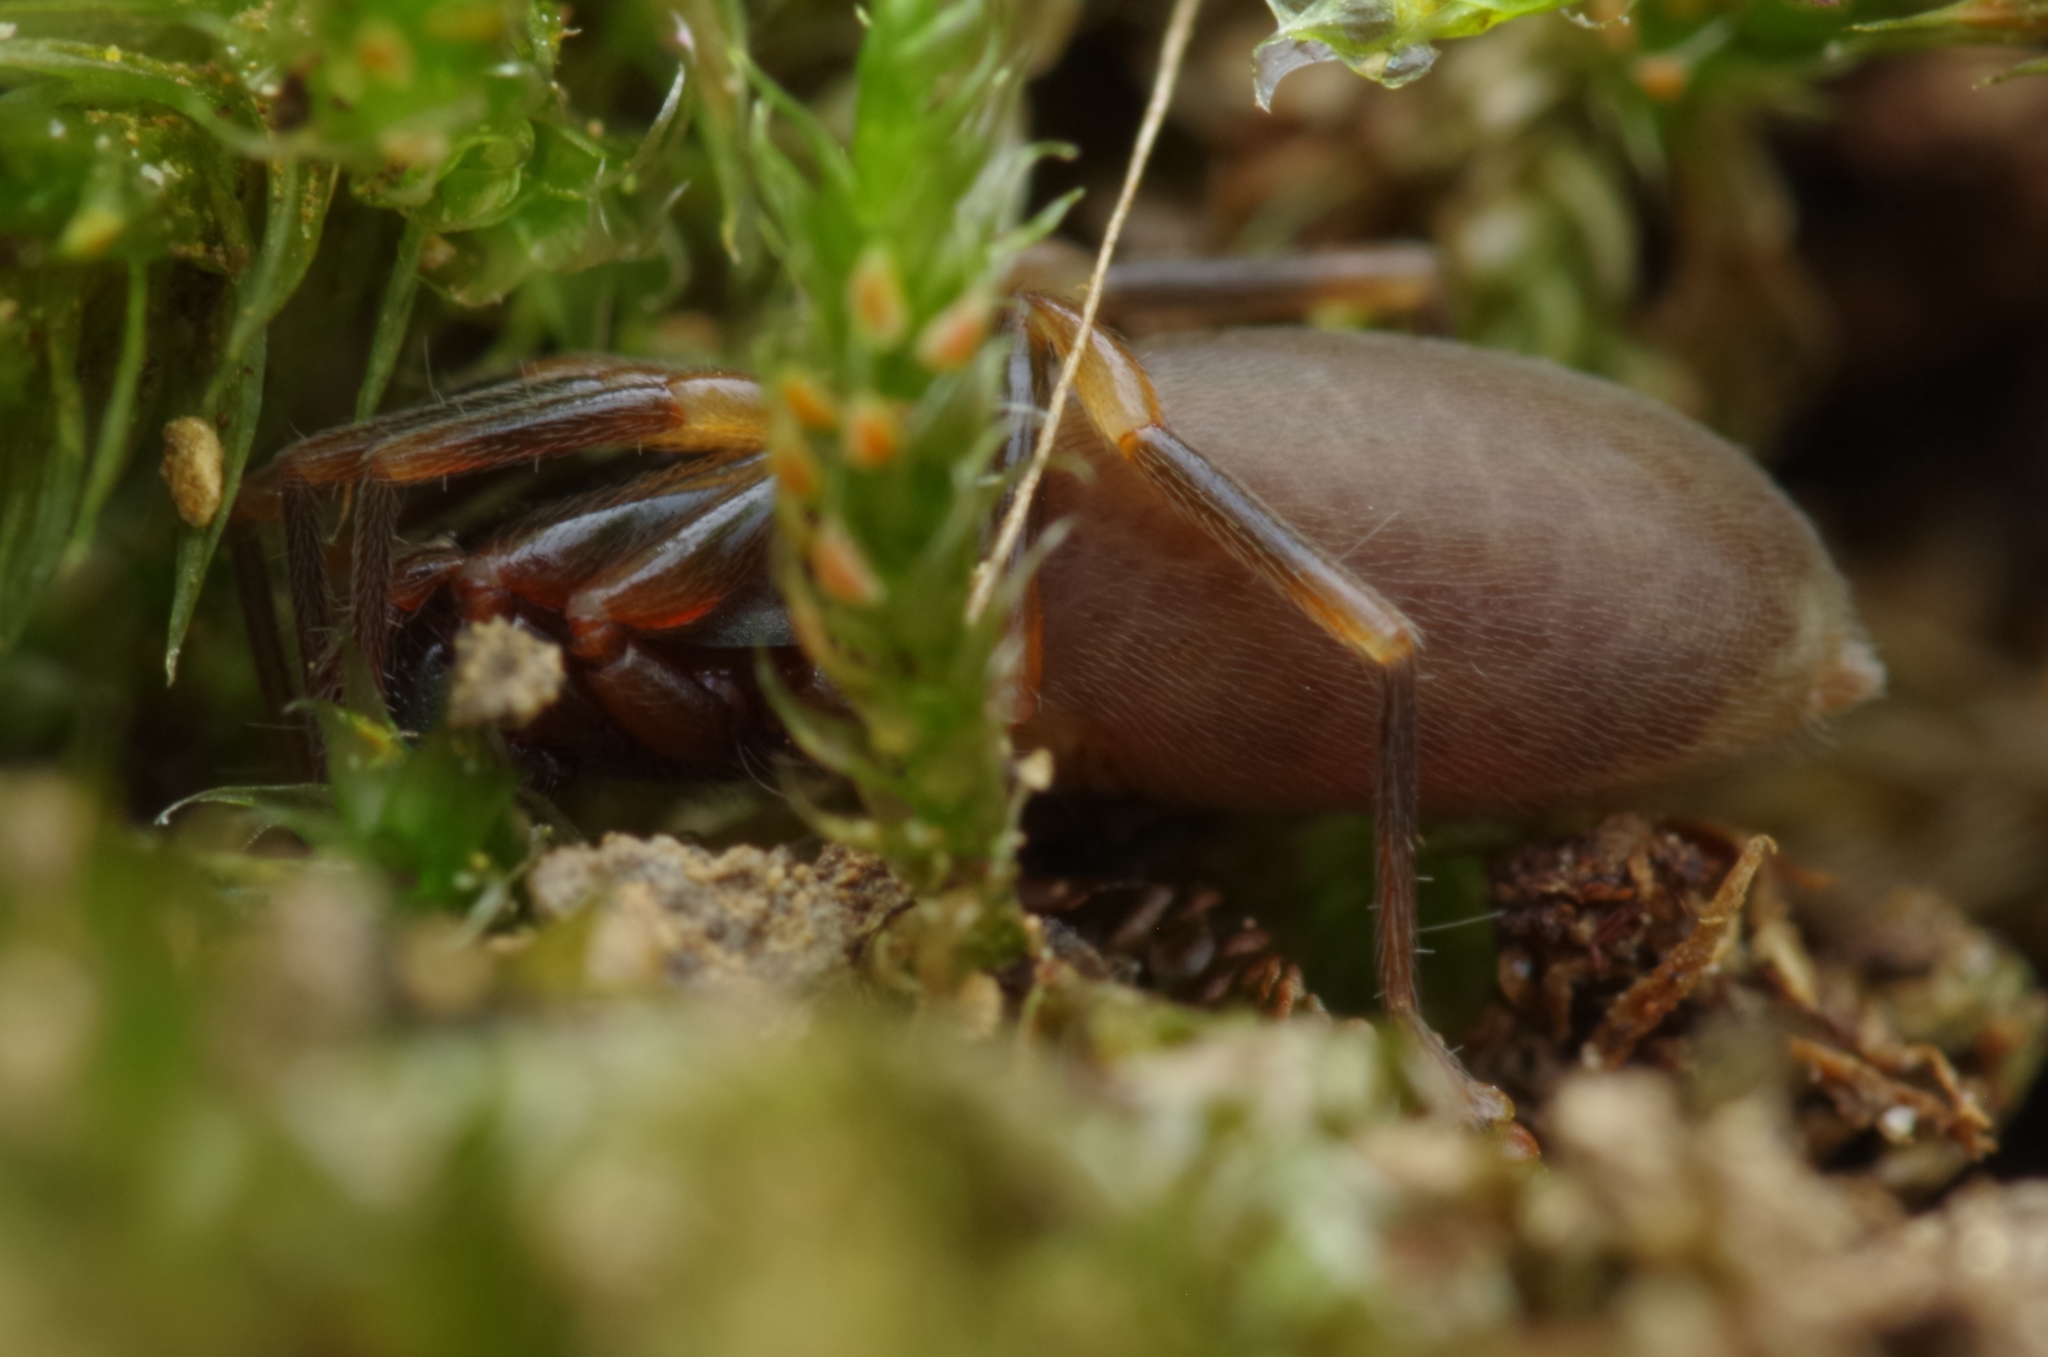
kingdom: Animalia
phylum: Arthropoda
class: Arachnida
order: Araneae
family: Dysderidae
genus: Harpactea
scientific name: Harpactea hombergi
